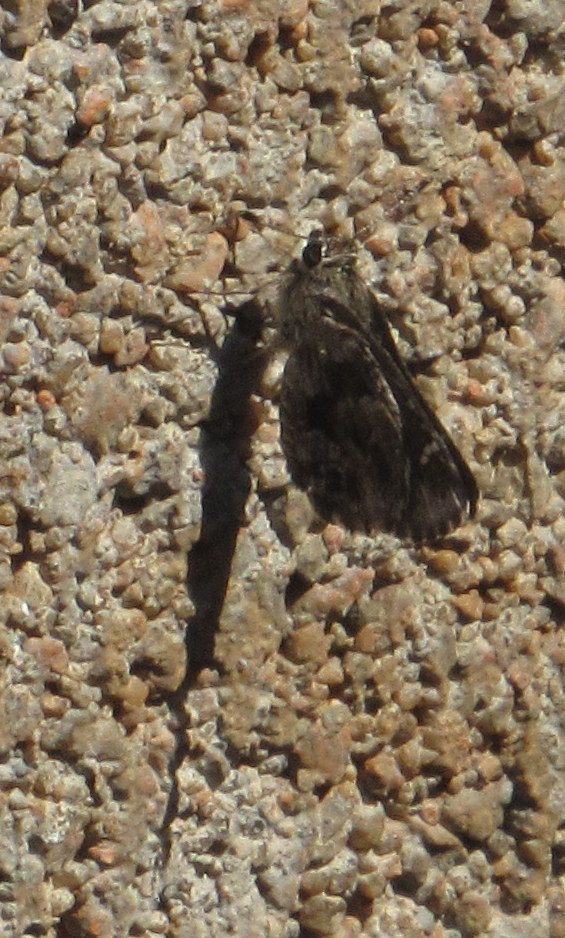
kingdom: Animalia
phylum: Arthropoda
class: Insecta
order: Lepidoptera
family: Hesperiidae
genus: Mastor
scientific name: Mastor nysa
